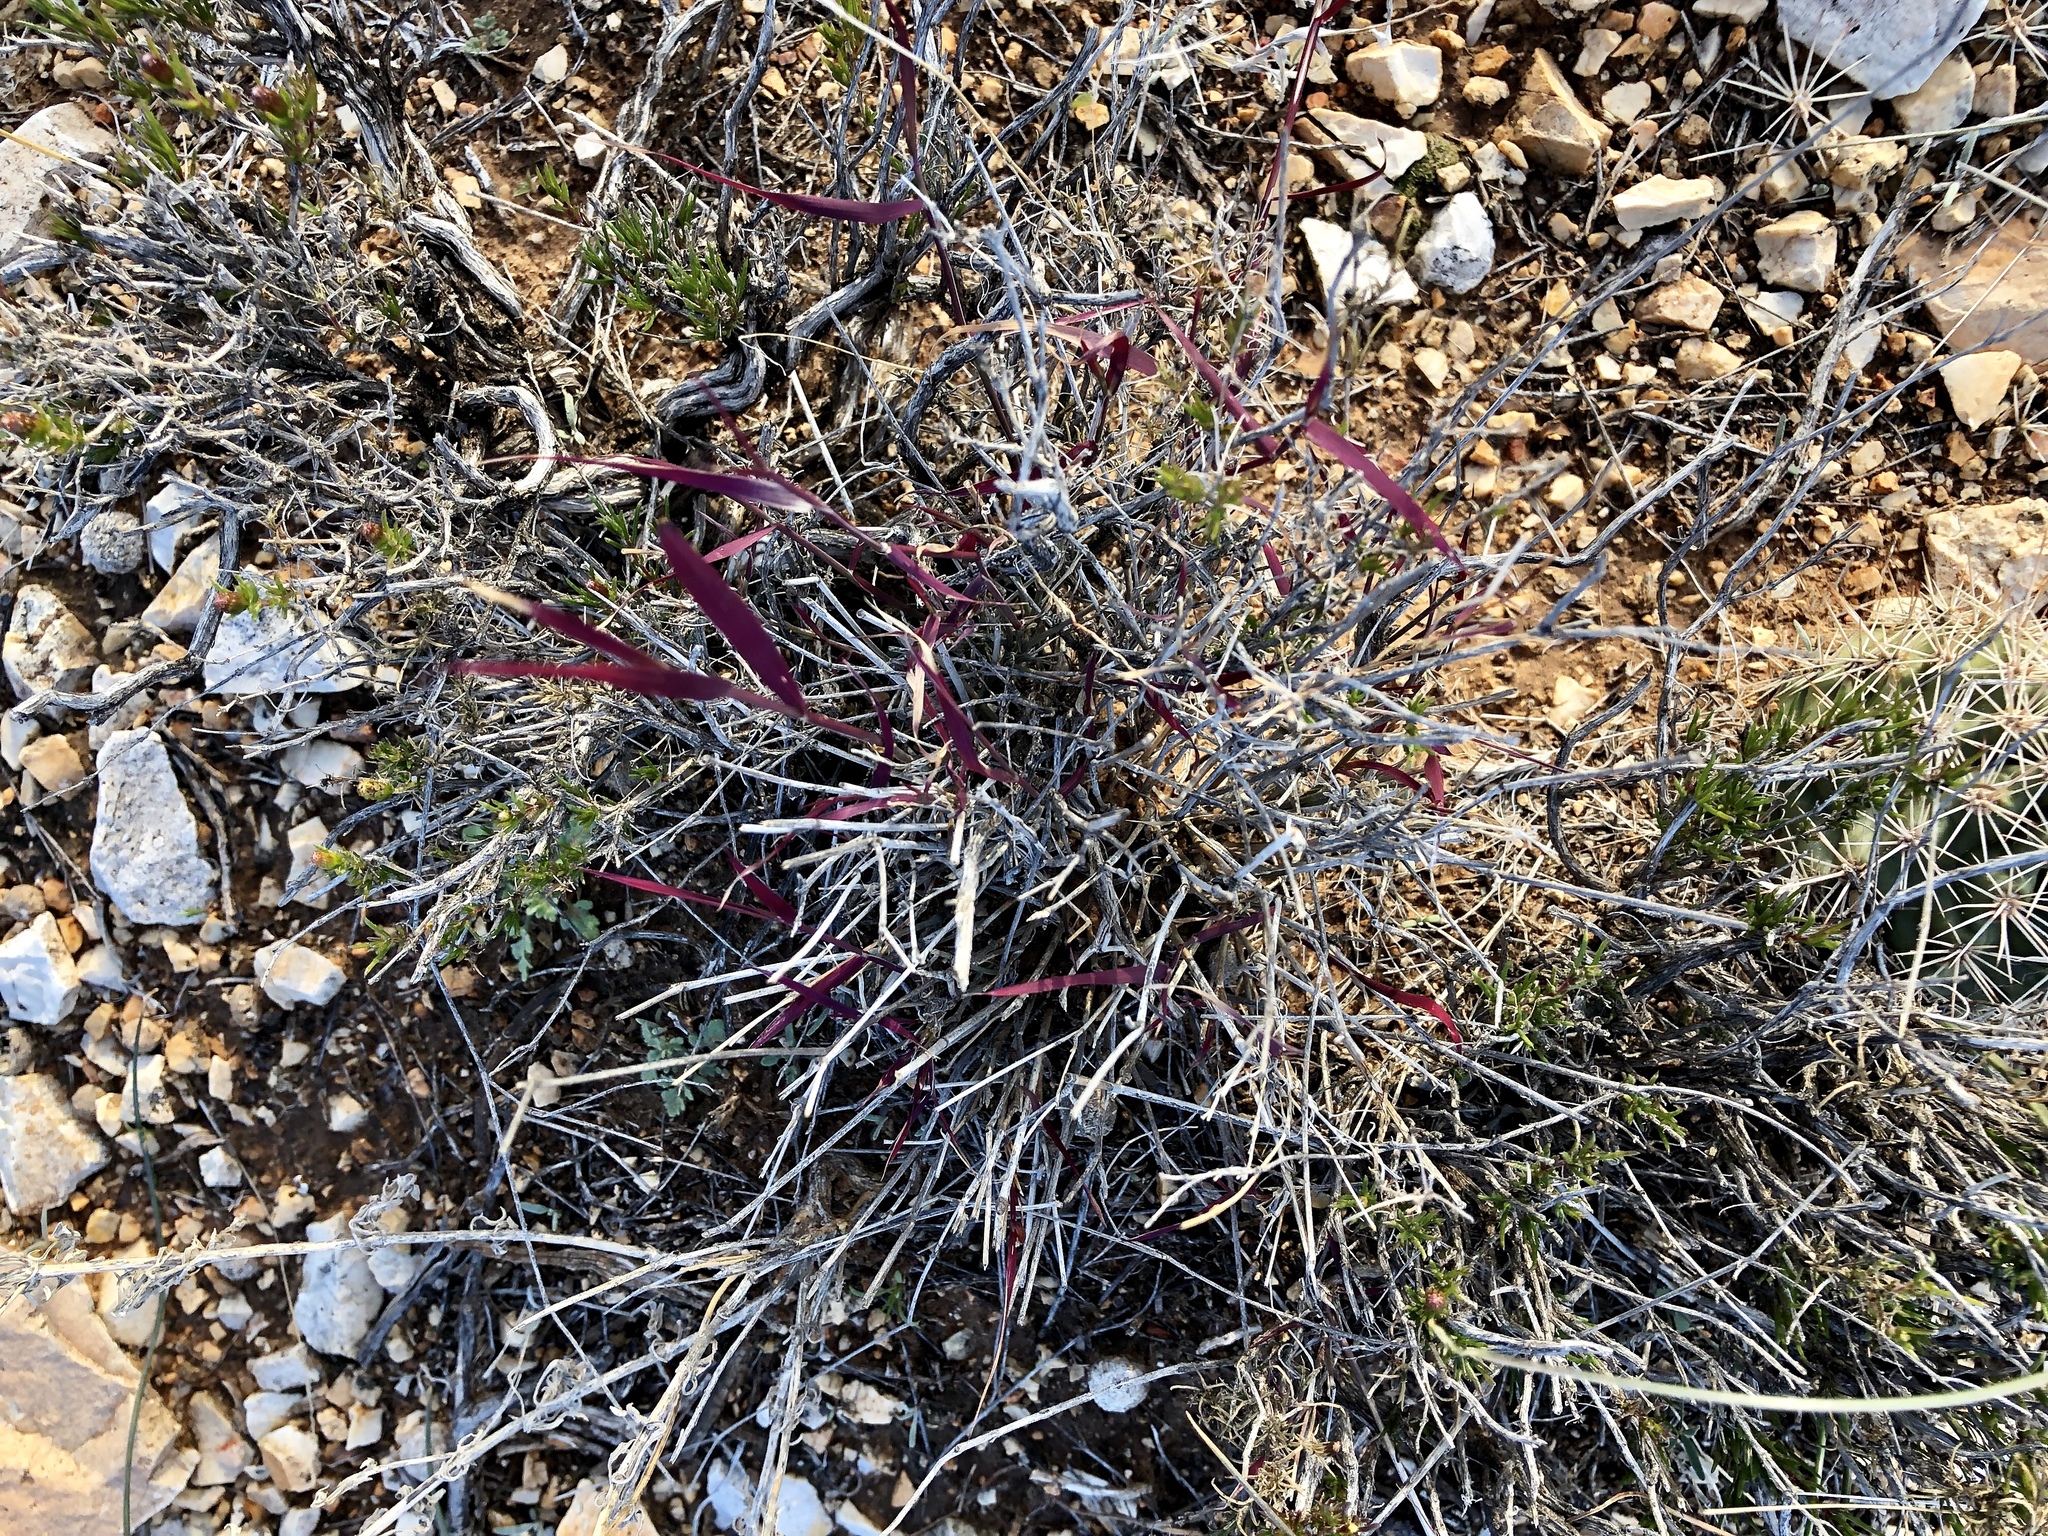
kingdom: Plantae
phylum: Tracheophyta
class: Liliopsida
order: Poales
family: Poaceae
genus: Muhlenbergia
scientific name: Muhlenbergia porteri
